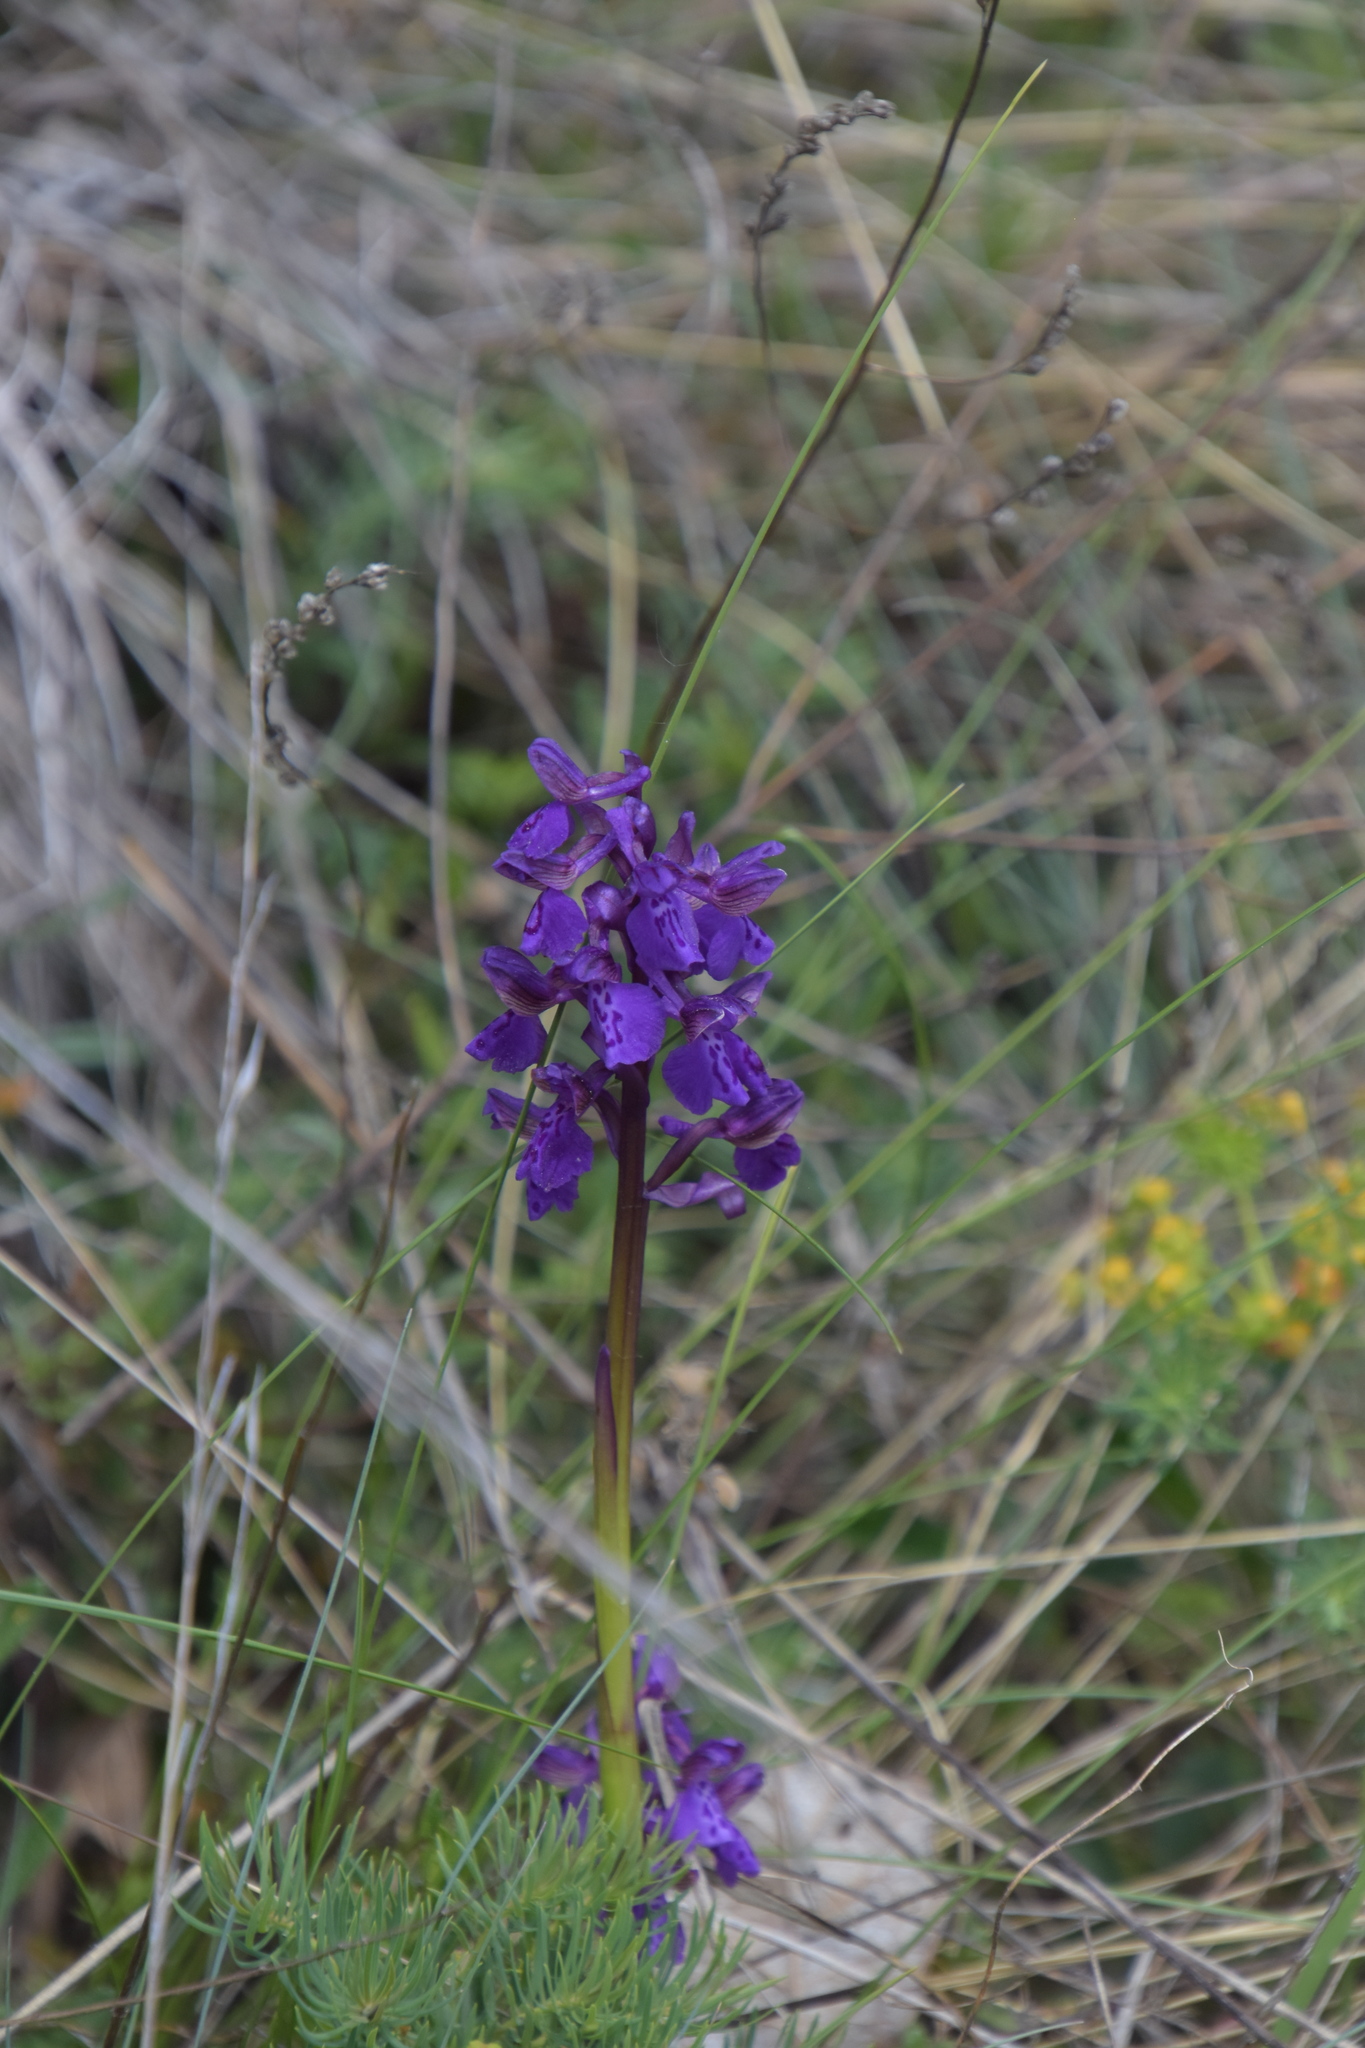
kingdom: Plantae
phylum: Tracheophyta
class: Liliopsida
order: Asparagales
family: Orchidaceae
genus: Anacamptis
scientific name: Anacamptis morio
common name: Green-winged orchid
